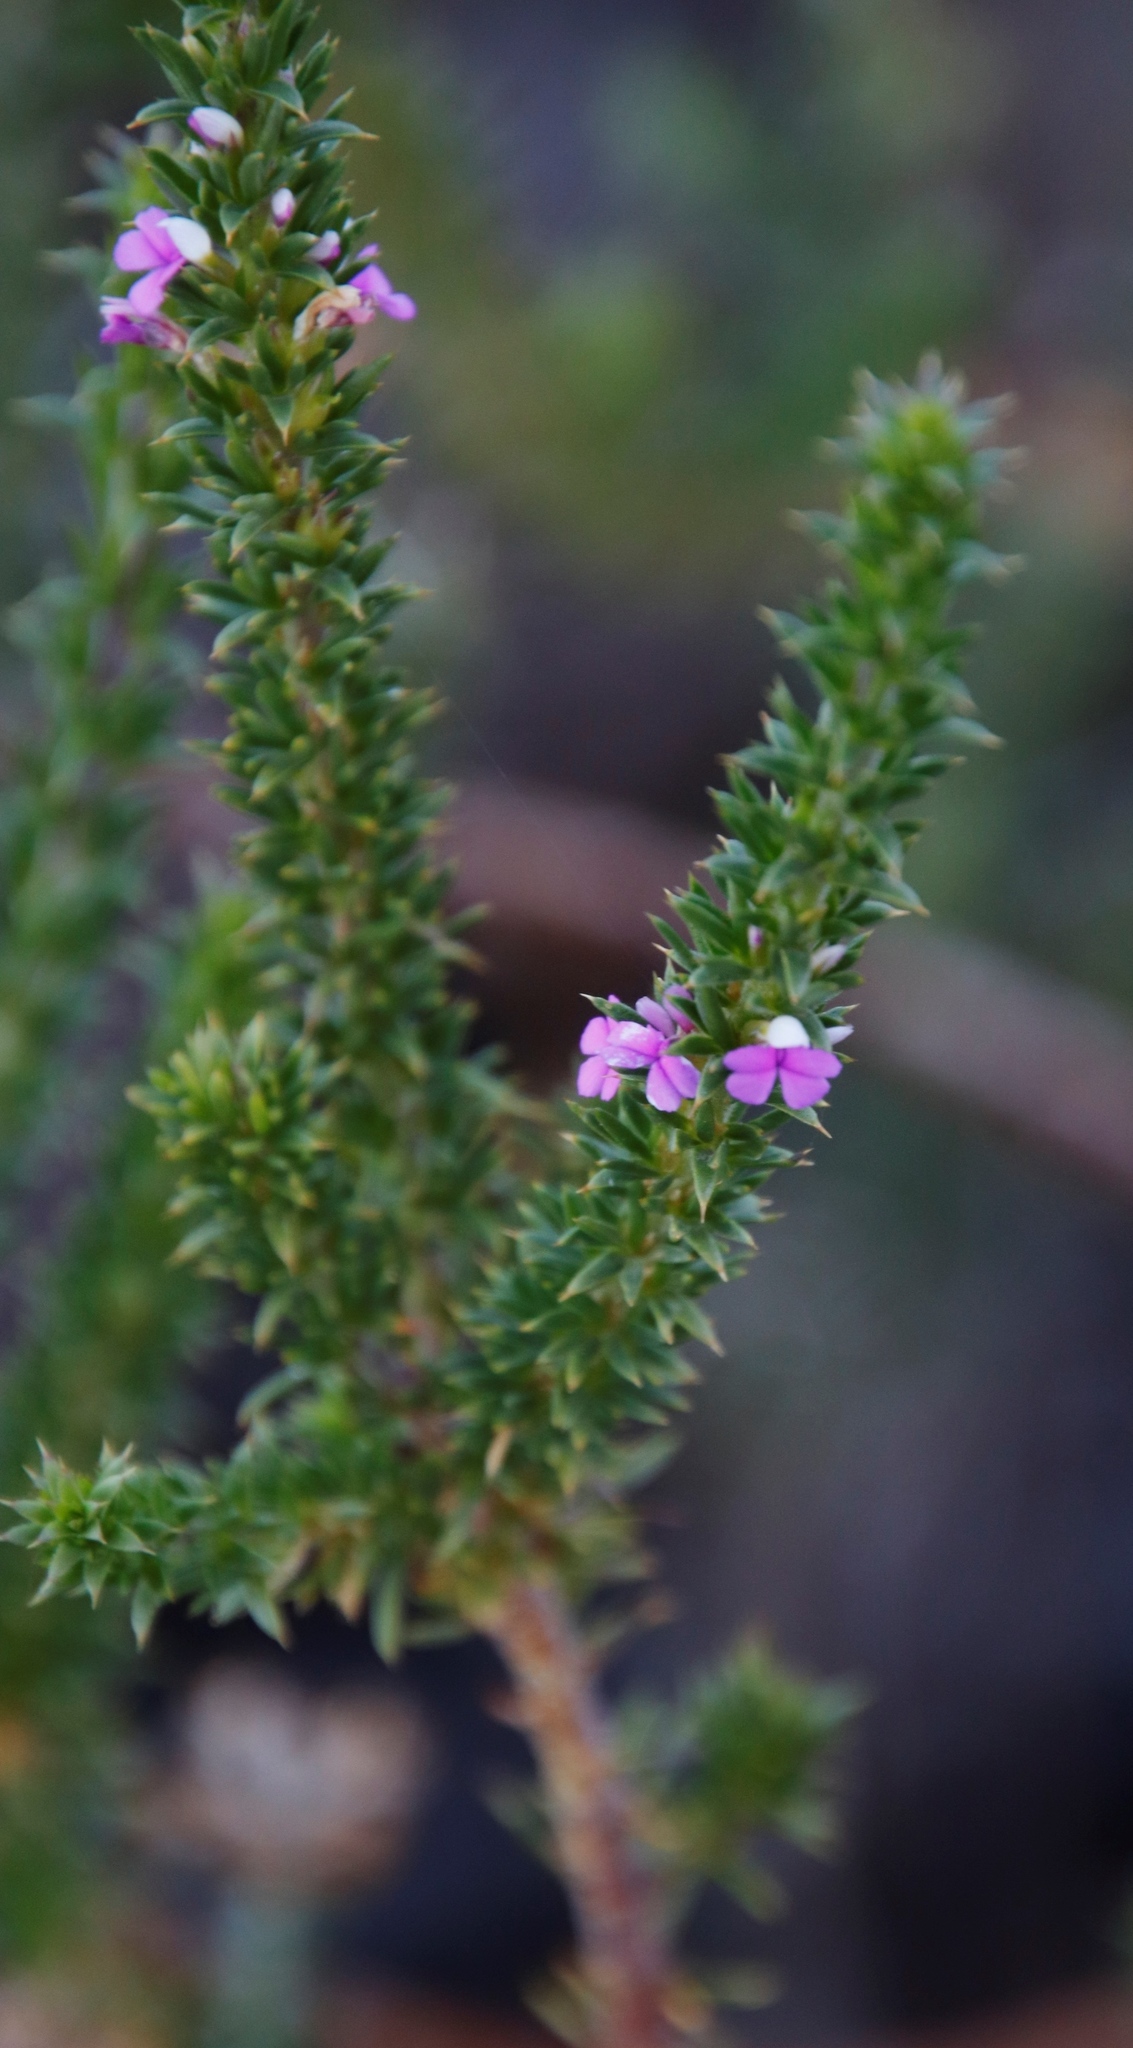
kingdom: Plantae
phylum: Tracheophyta
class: Magnoliopsida
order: Fabales
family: Polygalaceae
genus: Muraltia
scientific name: Muraltia heisteria
